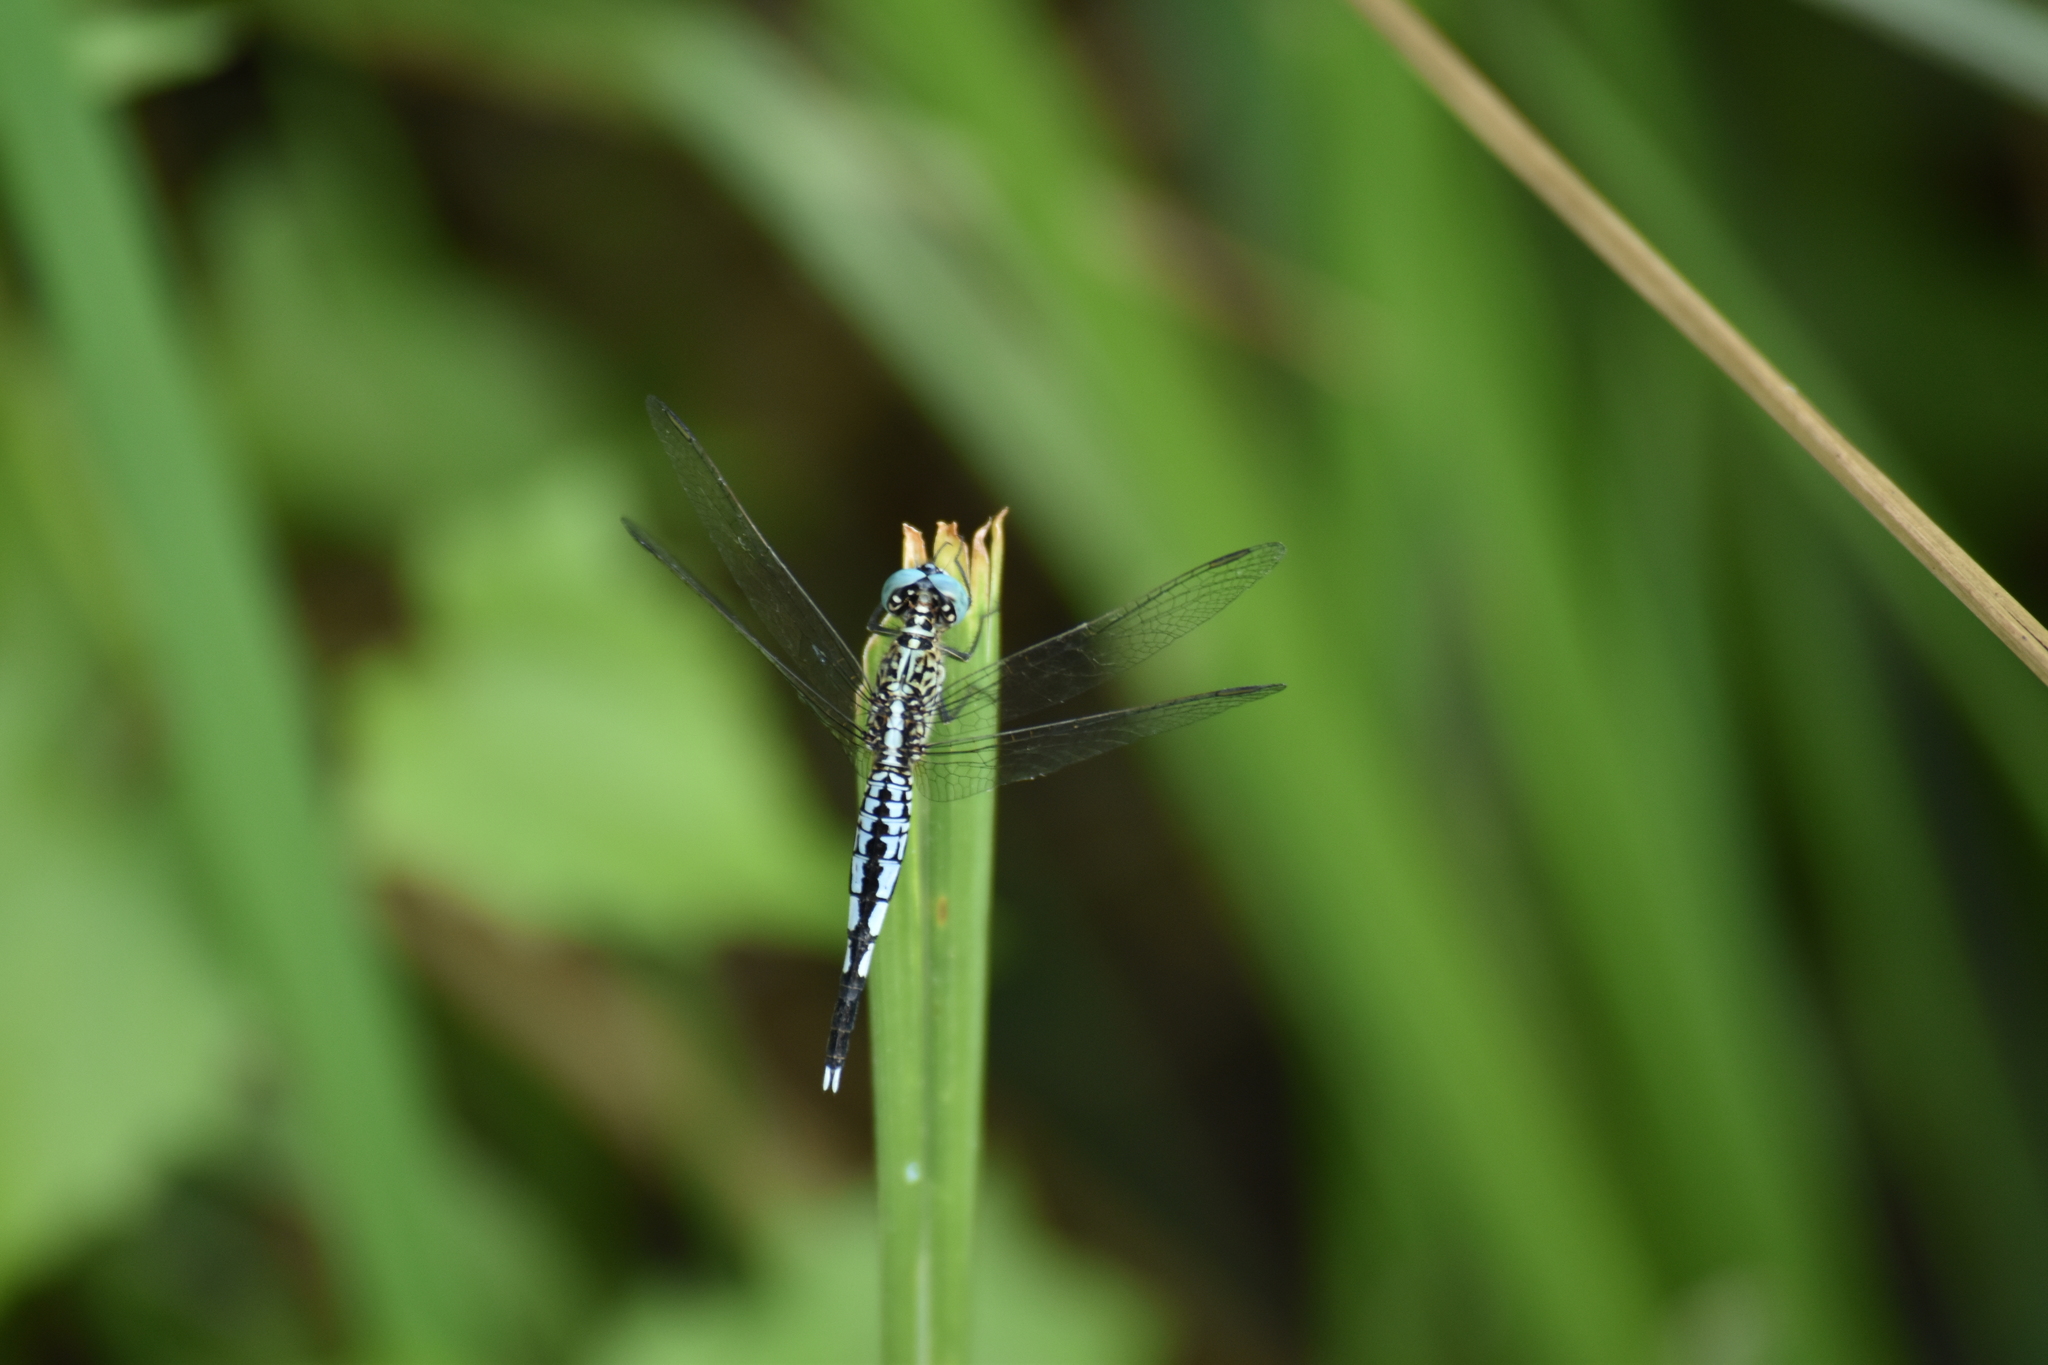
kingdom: Animalia
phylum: Arthropoda
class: Insecta
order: Odonata
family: Libellulidae
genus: Acisoma
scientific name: Acisoma panorpoides
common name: Asian pintail
